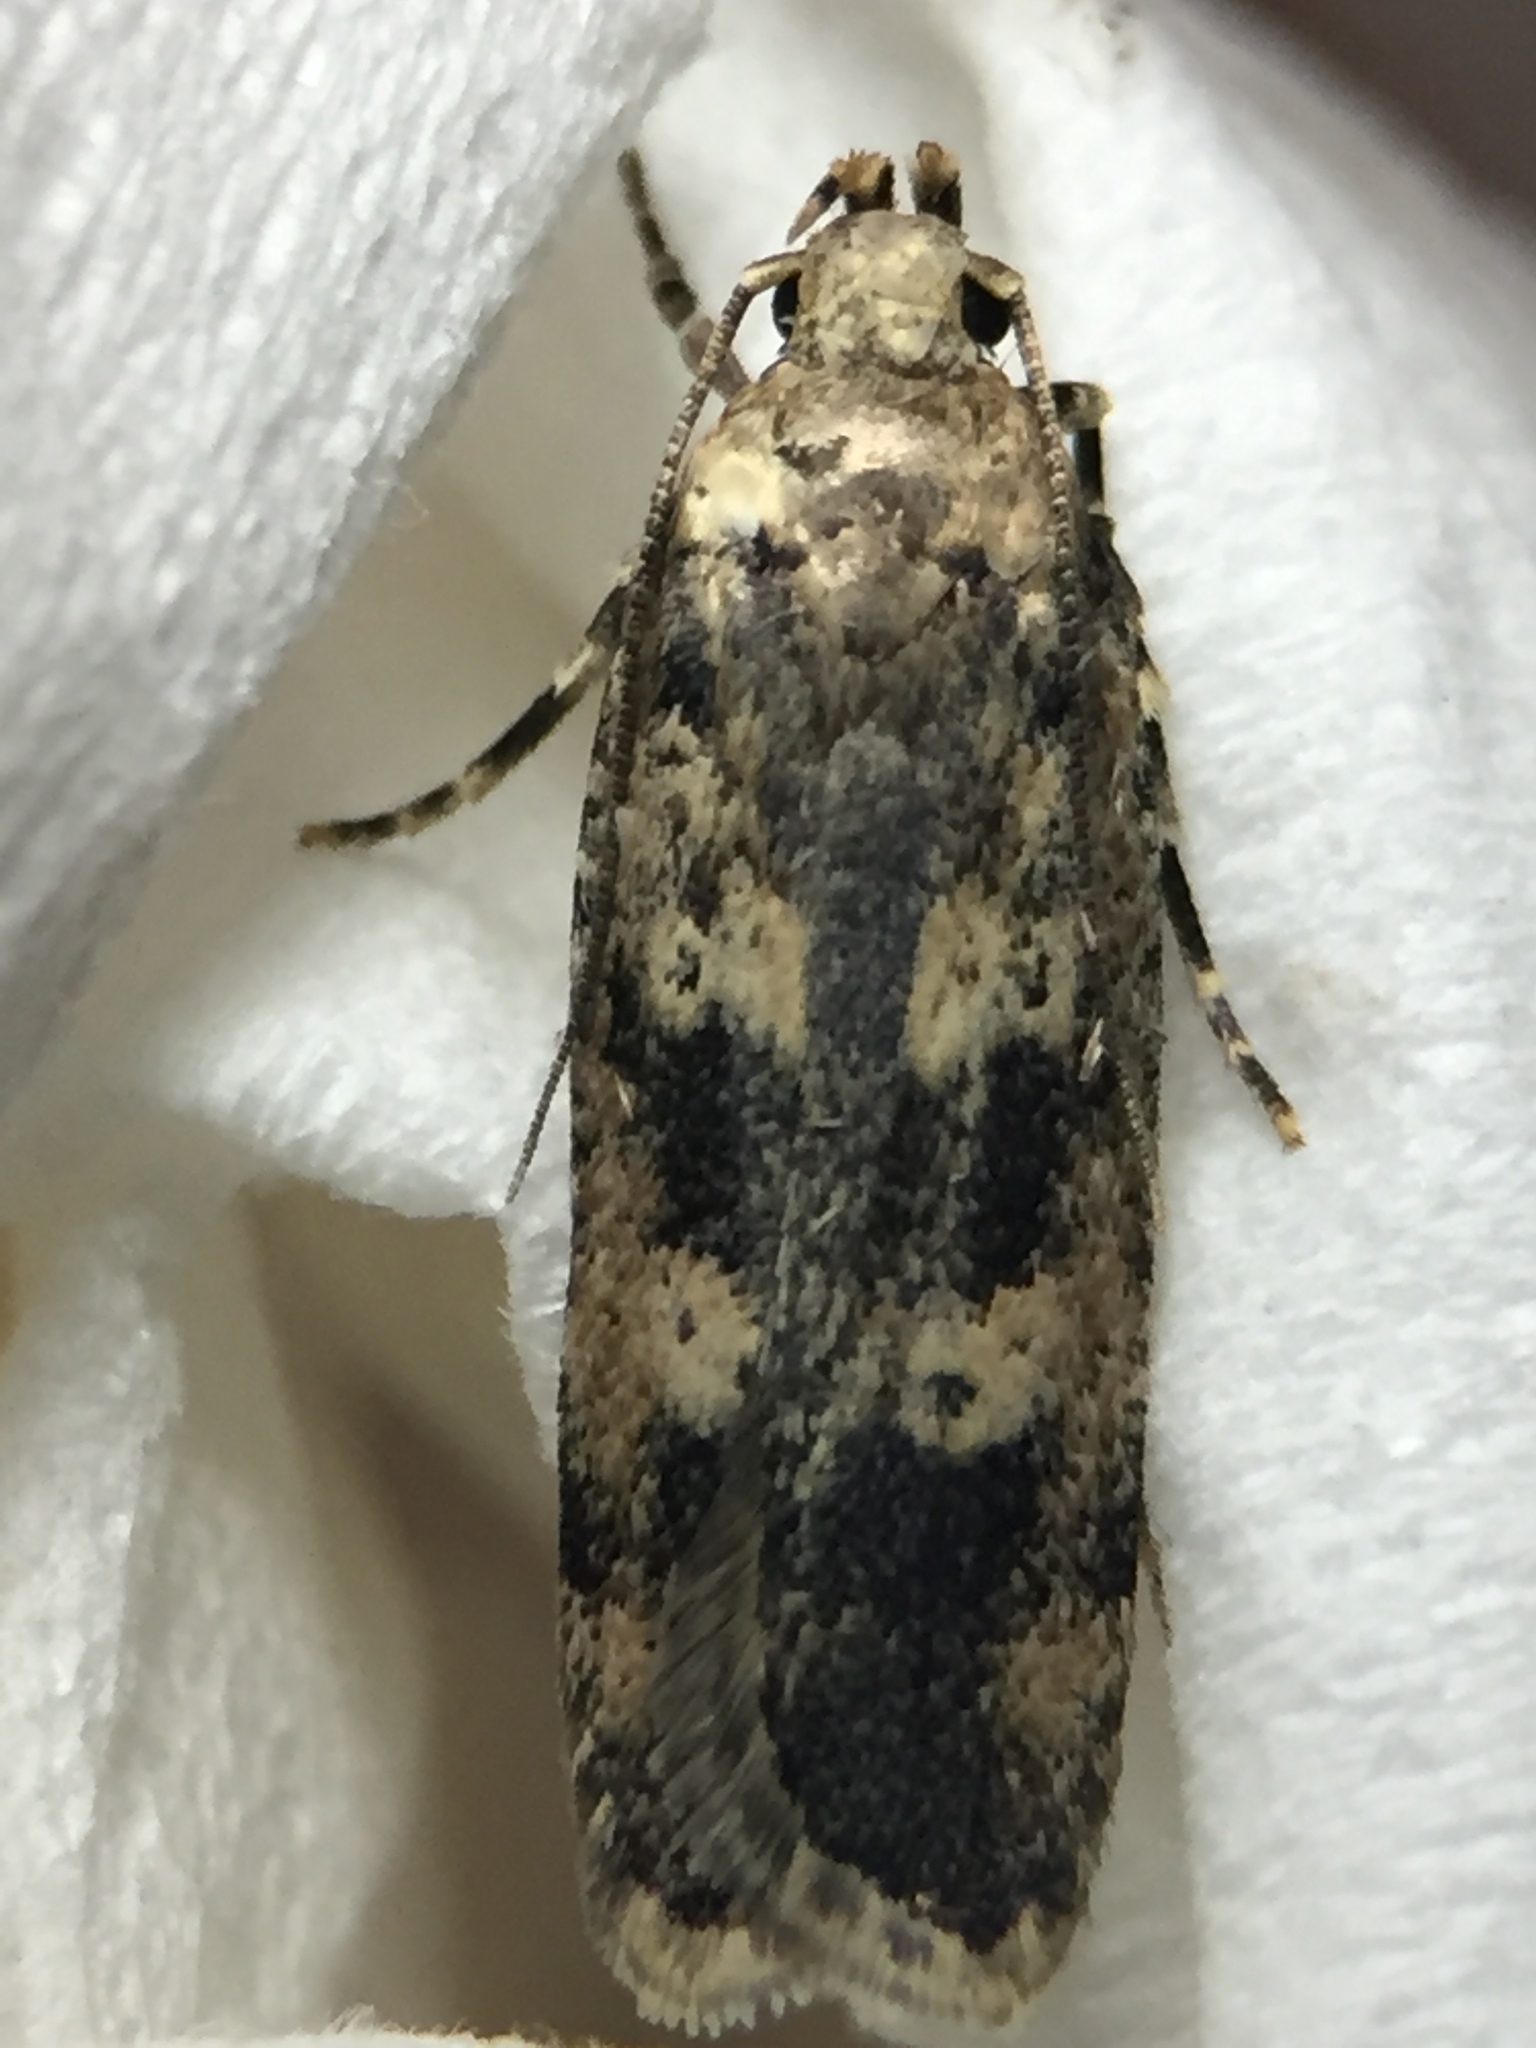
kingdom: Animalia
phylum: Arthropoda
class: Insecta
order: Lepidoptera
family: Gelechiidae
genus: Anisoplaca
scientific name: Anisoplaca cosmia
